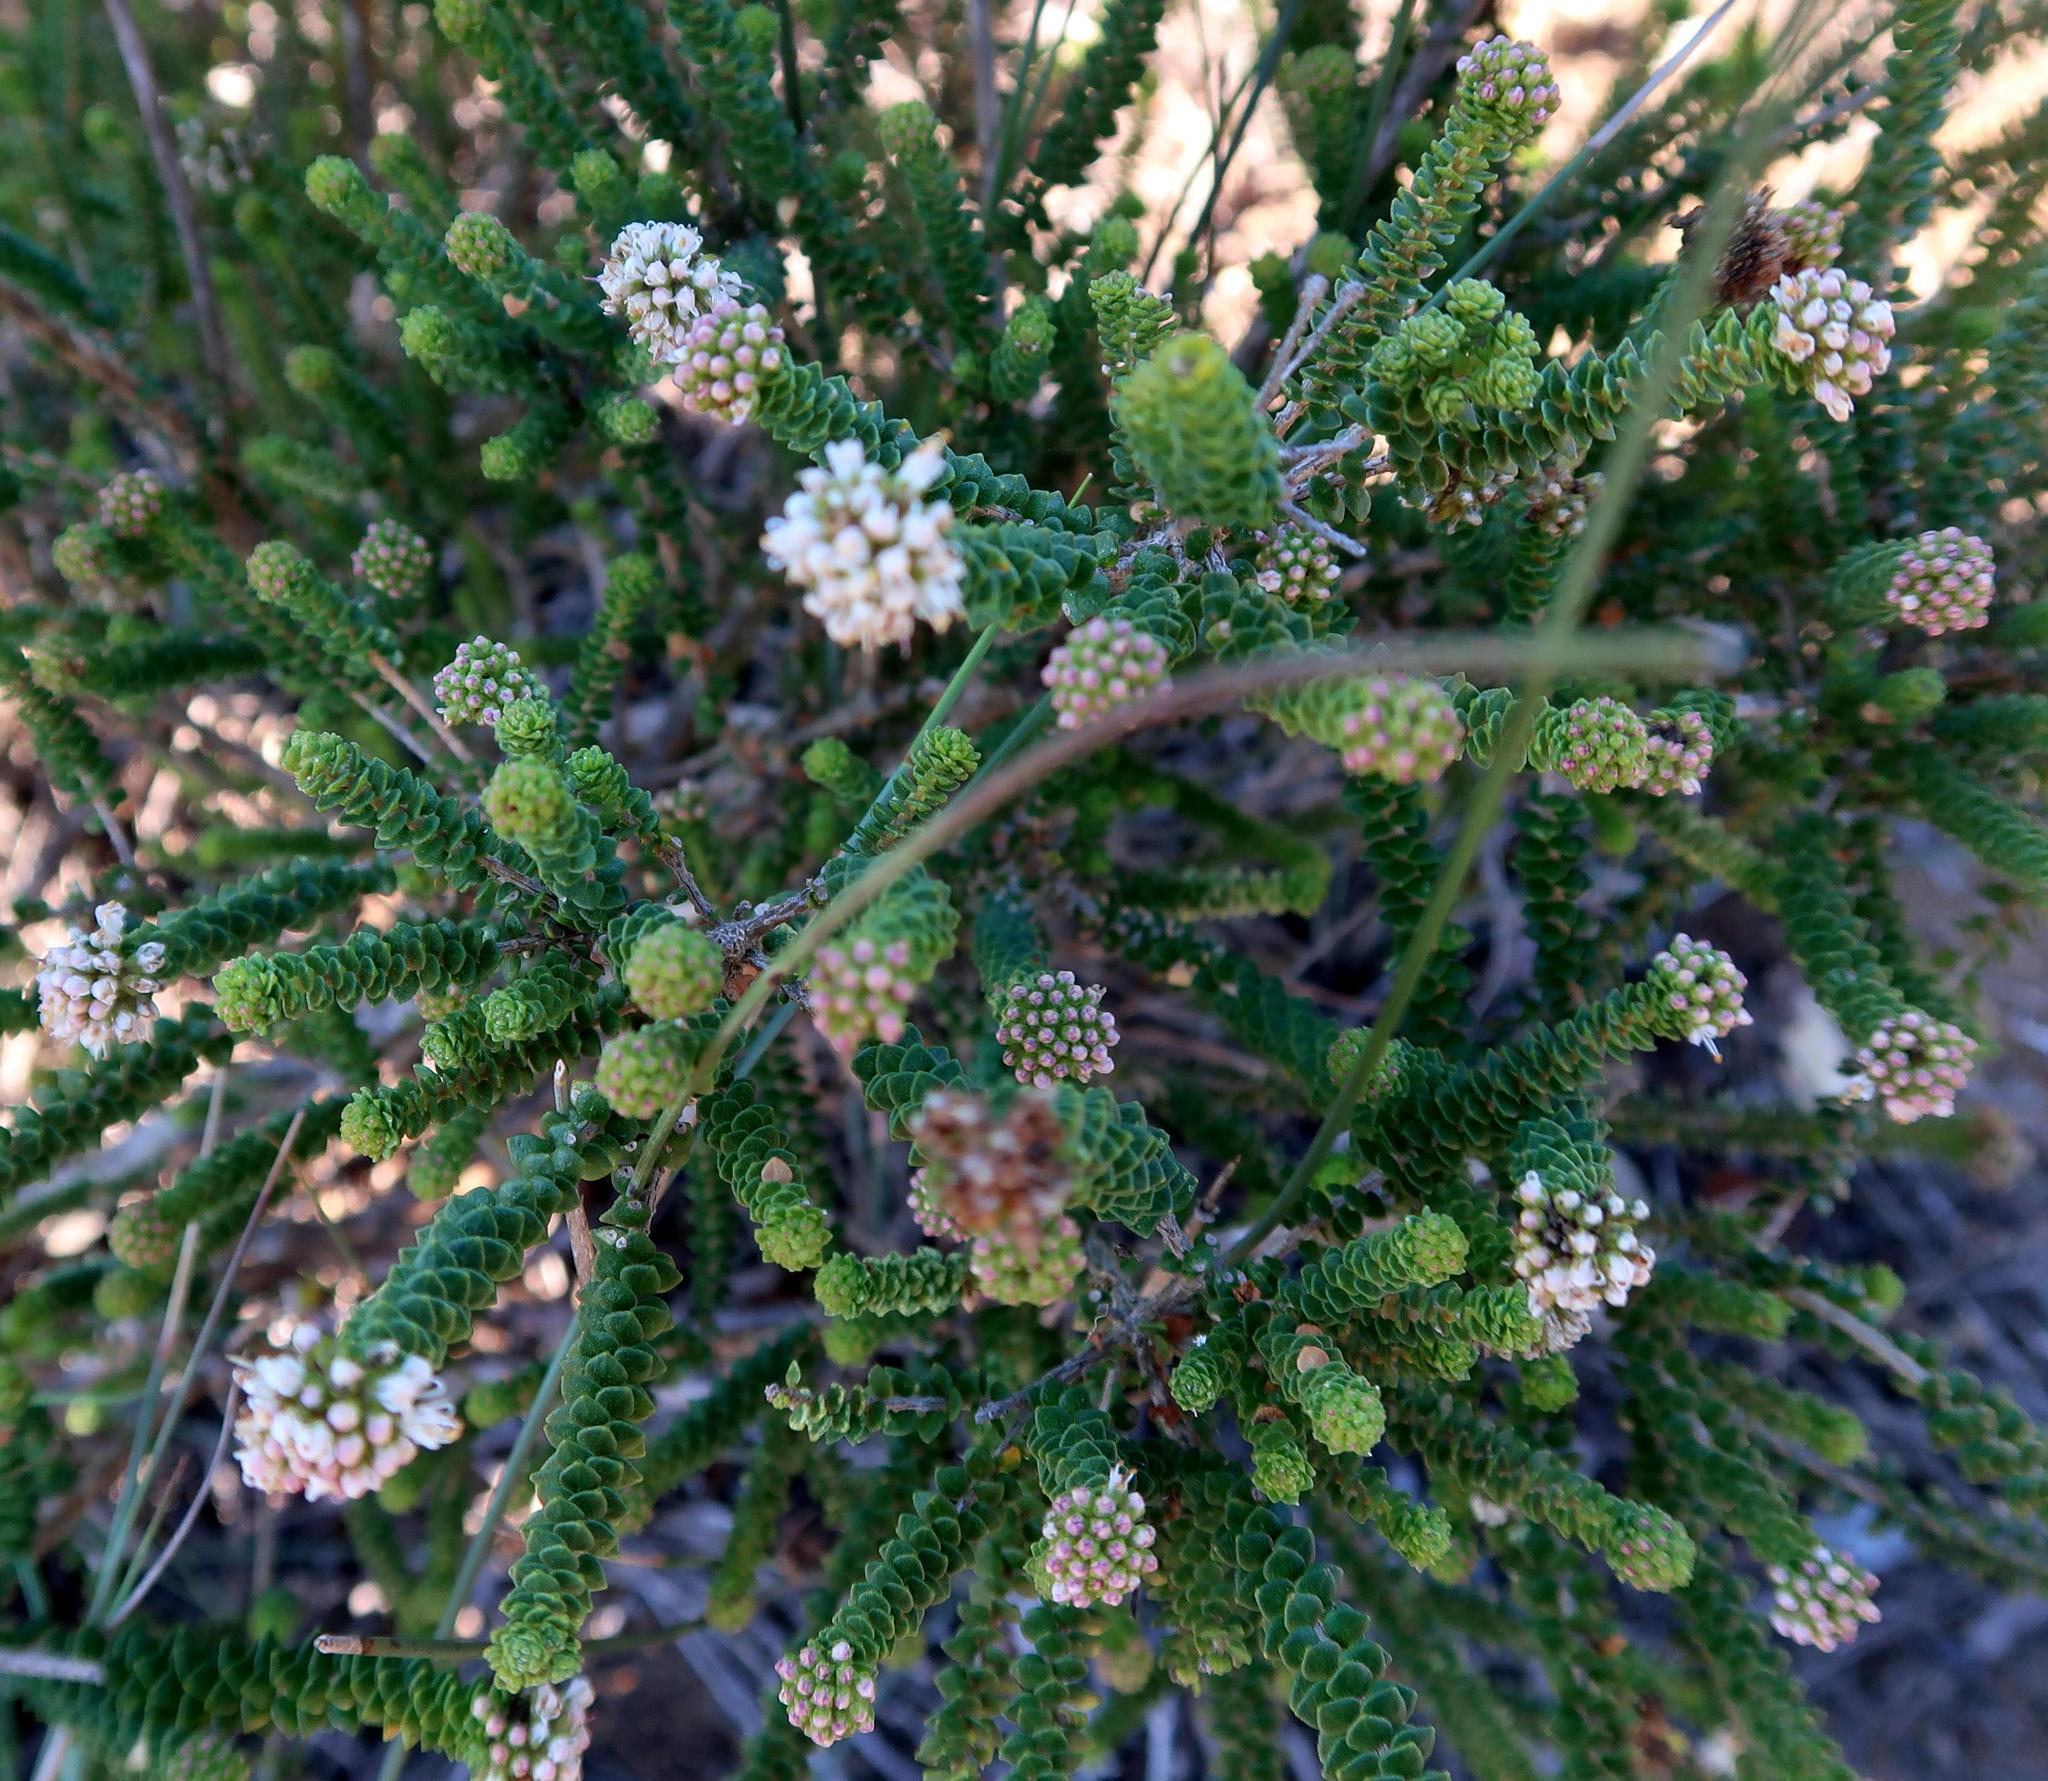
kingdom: Plantae
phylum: Tracheophyta
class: Magnoliopsida
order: Sapindales
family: Rutaceae
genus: Agathosma
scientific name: Agathosma muirii
